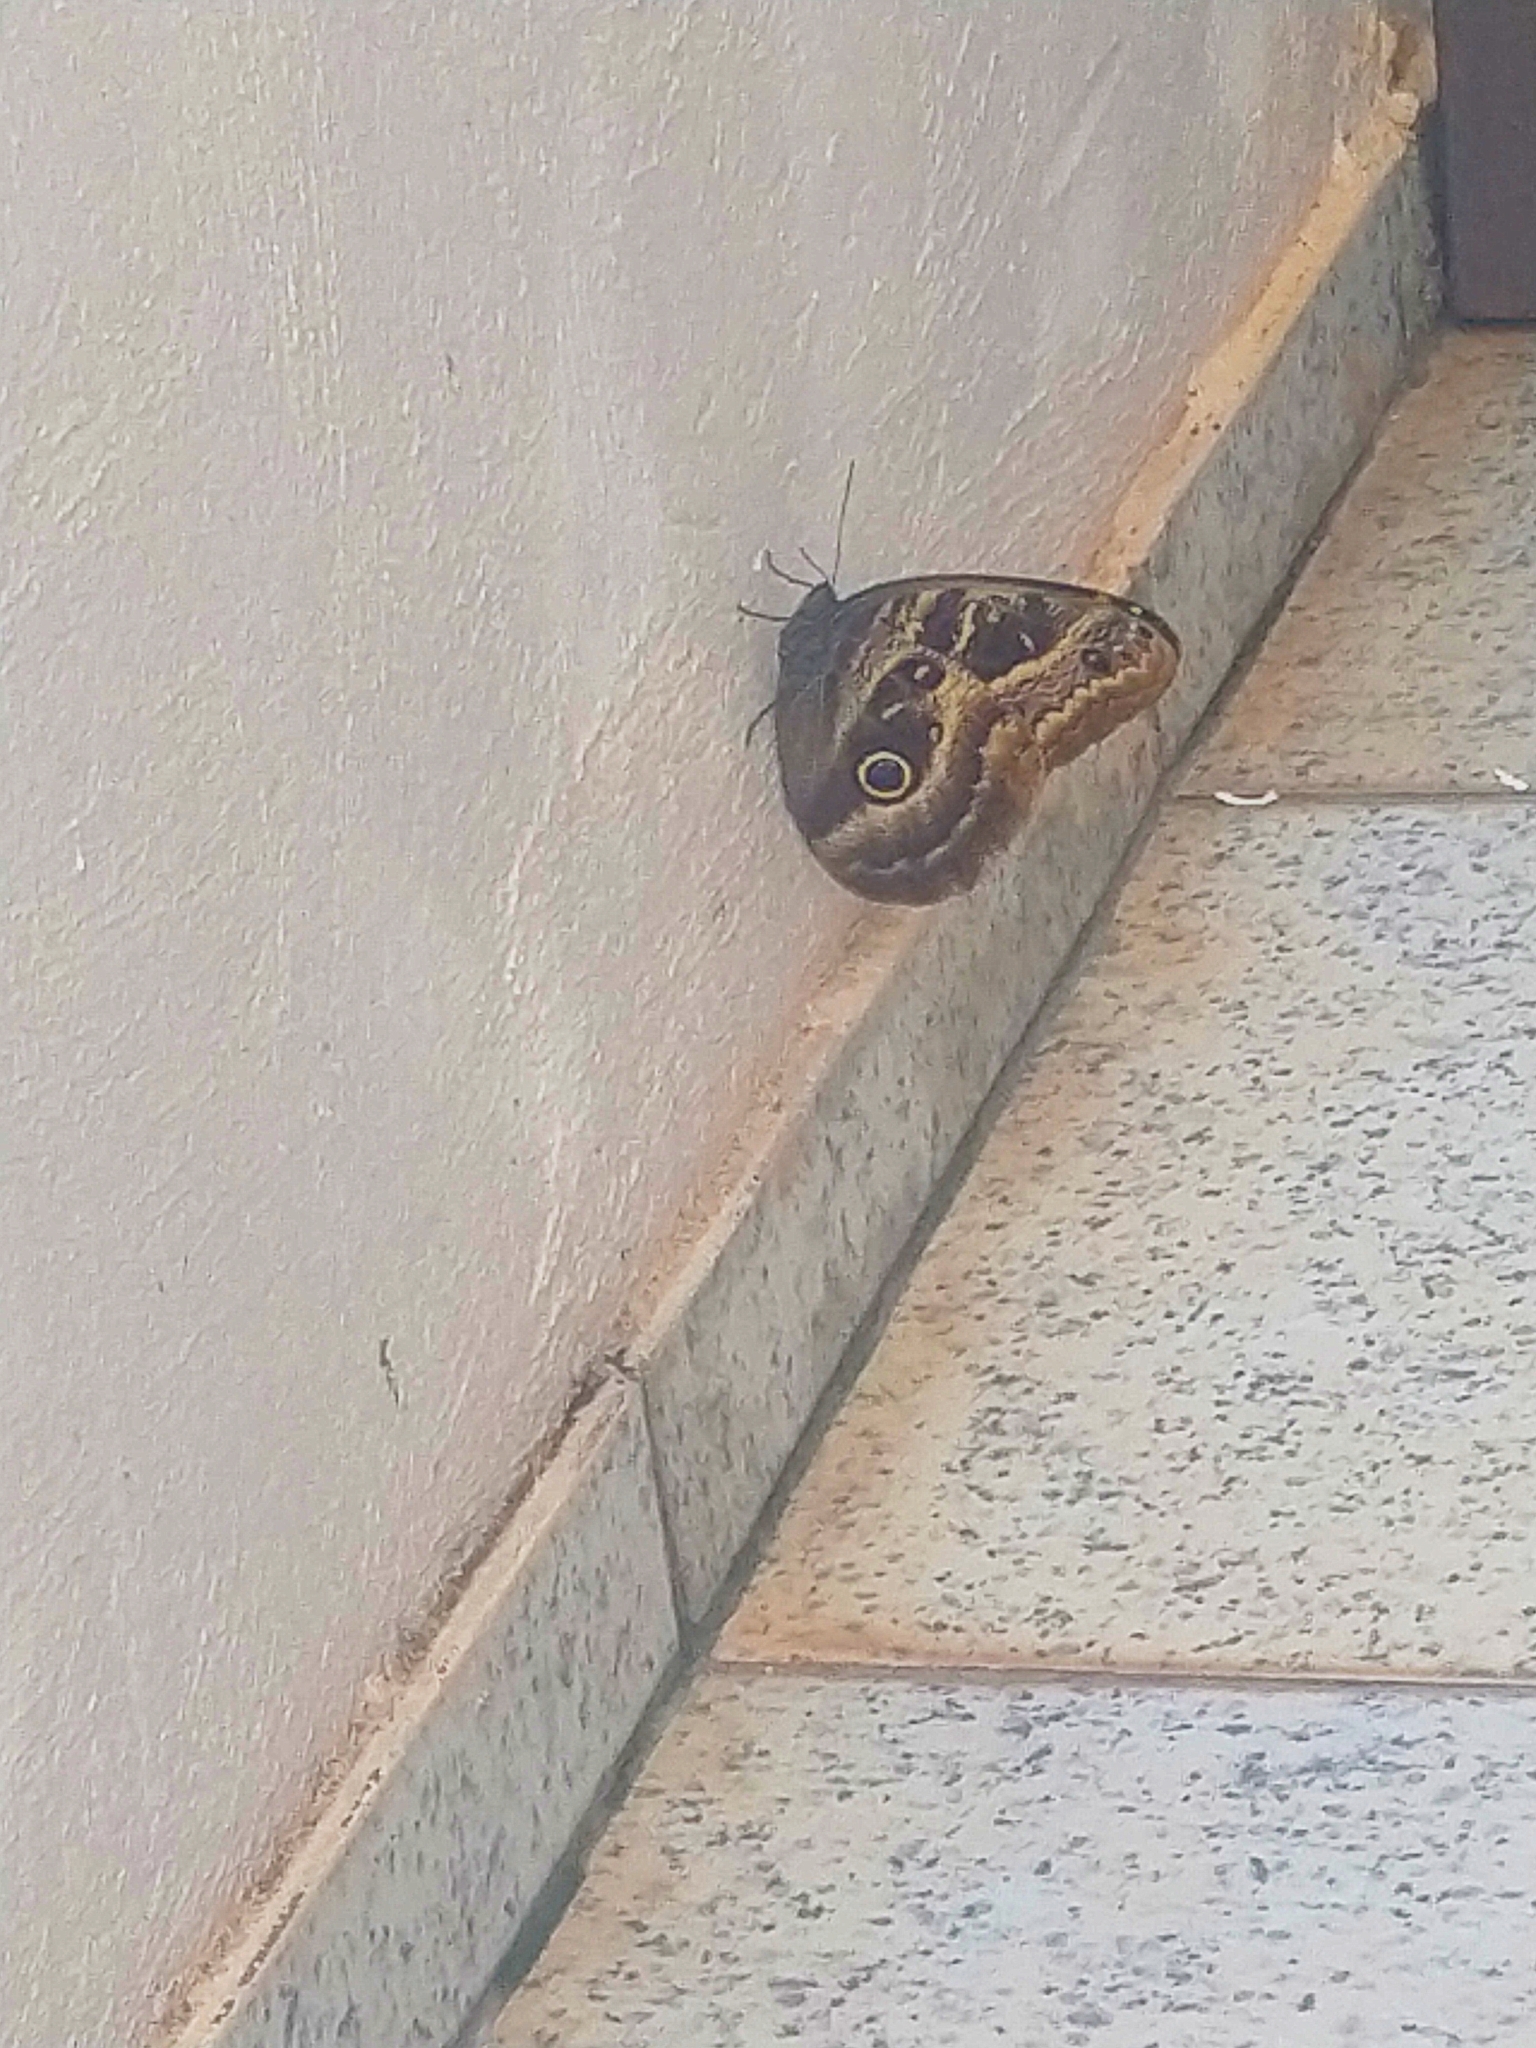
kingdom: Animalia
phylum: Arthropoda
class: Insecta
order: Lepidoptera
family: Nymphalidae
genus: Caligo
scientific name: Caligo illioneus
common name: Dusky owl-butterfly
